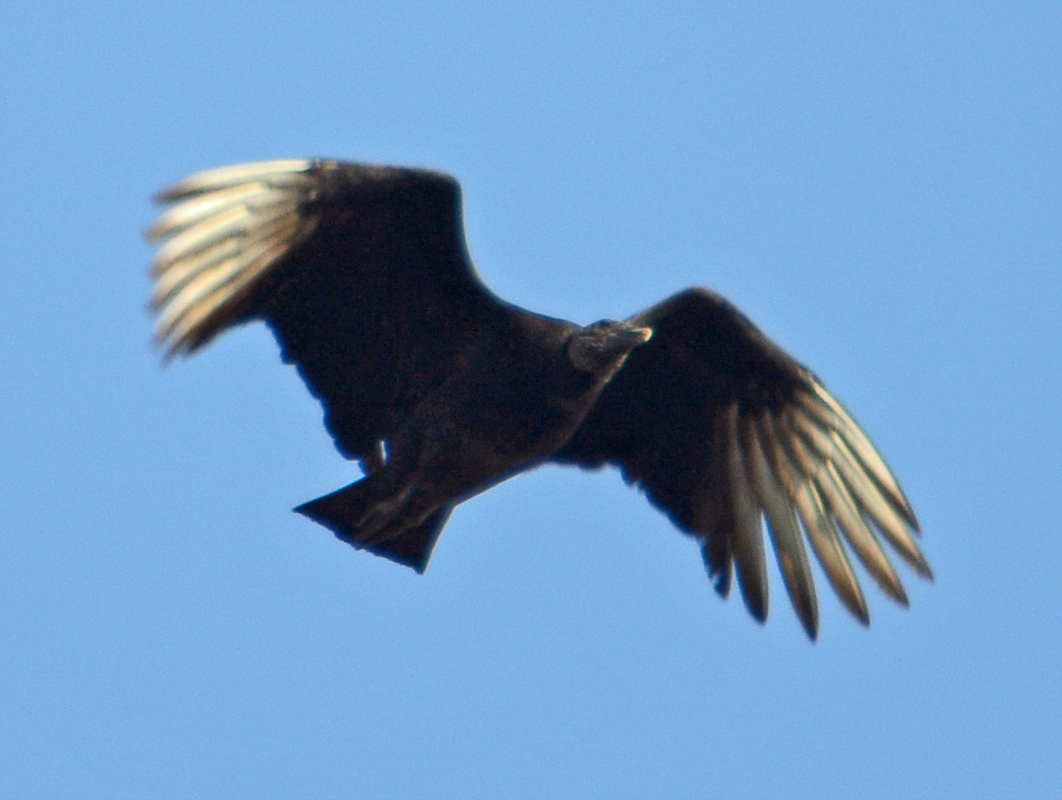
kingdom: Animalia
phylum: Chordata
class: Aves
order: Accipitriformes
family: Cathartidae
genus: Coragyps
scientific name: Coragyps atratus
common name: Black vulture
